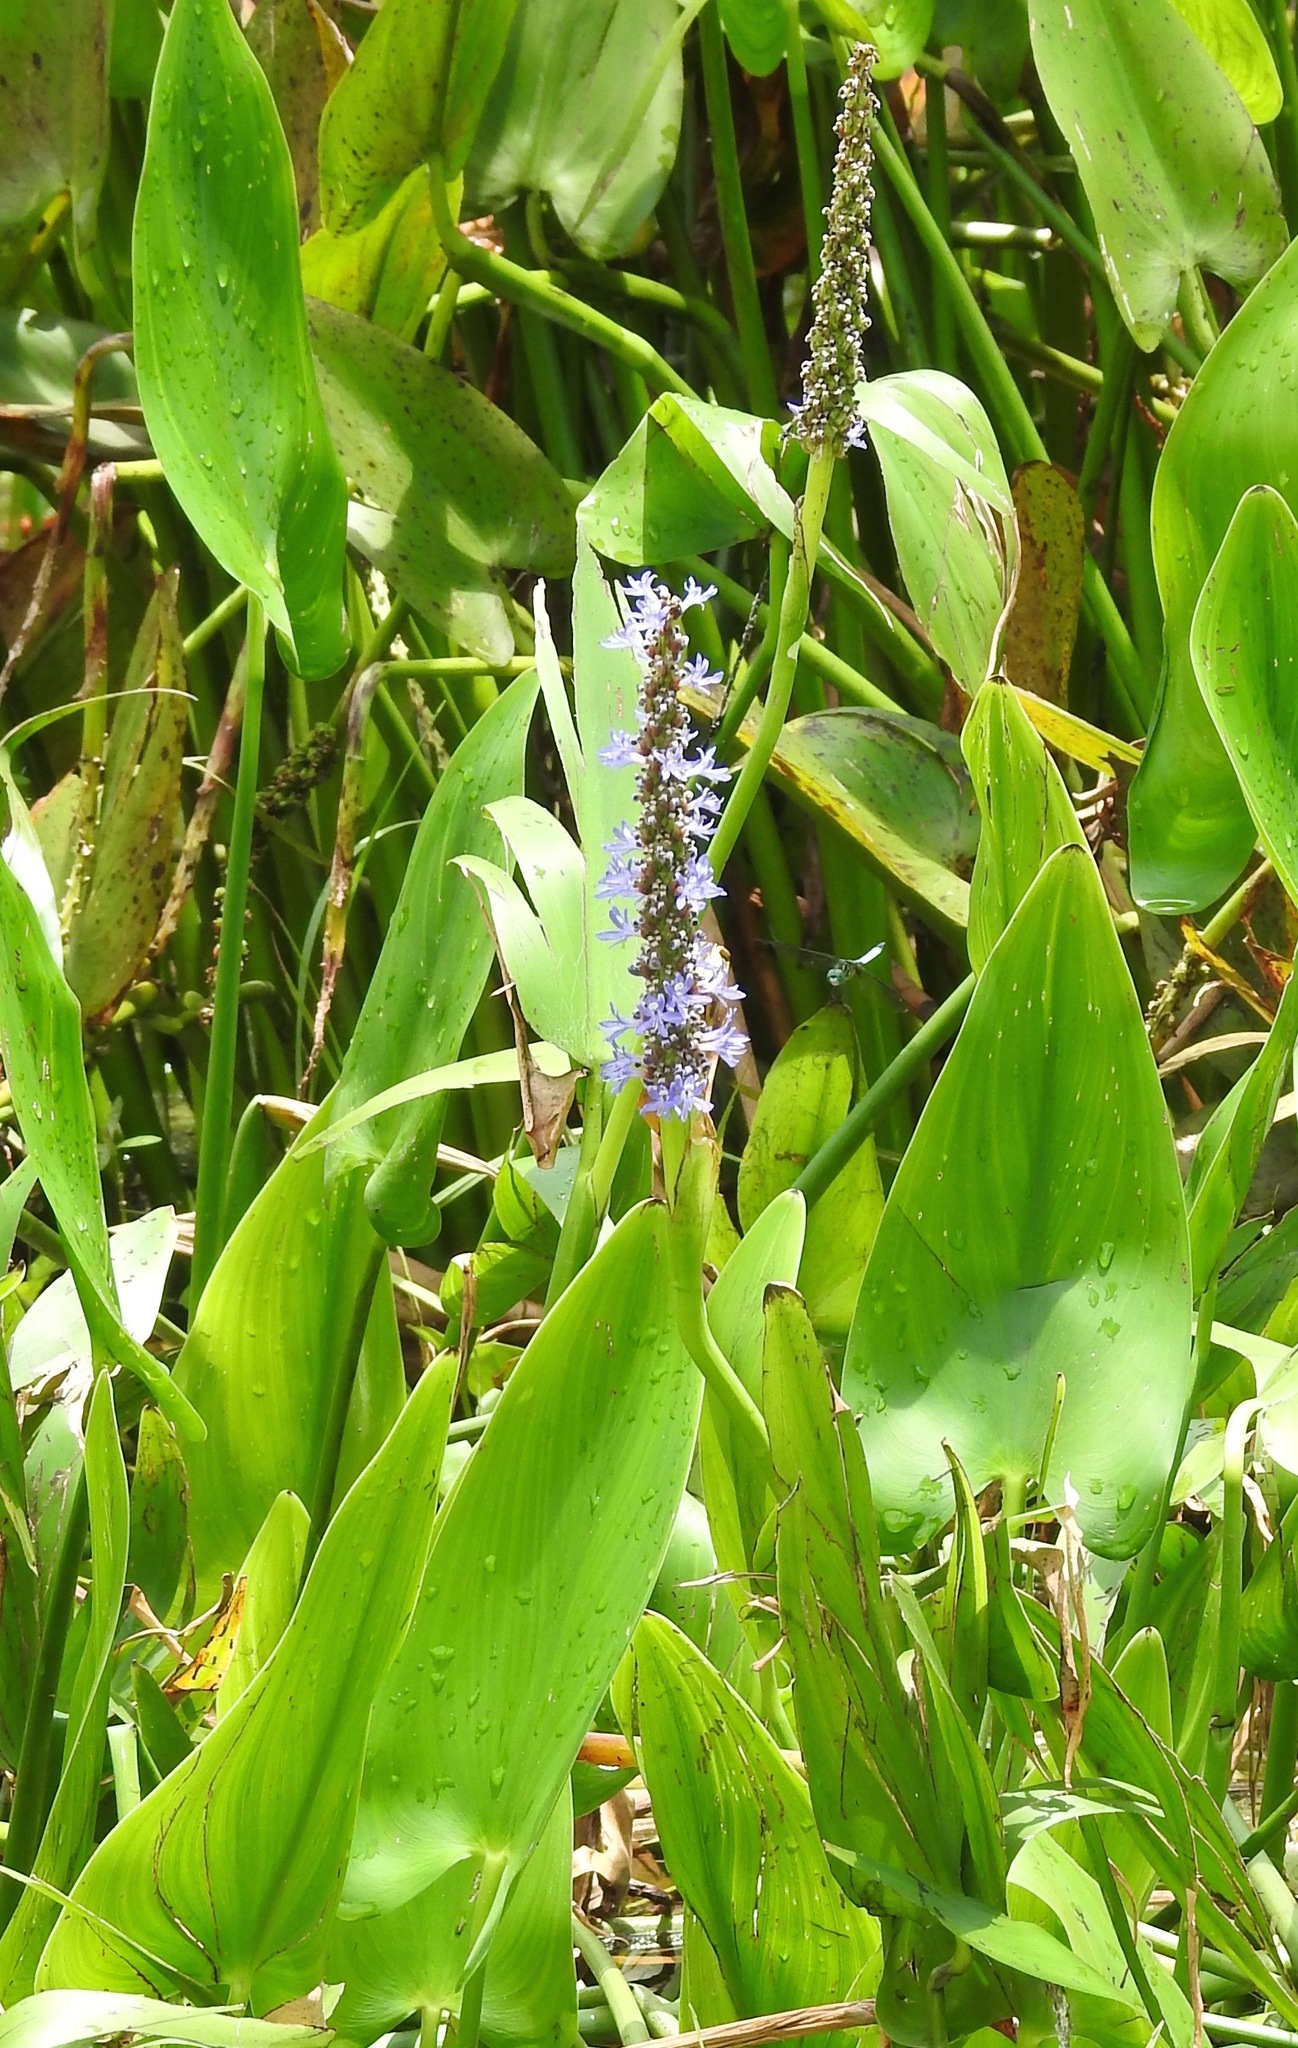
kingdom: Plantae
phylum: Tracheophyta
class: Liliopsida
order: Commelinales
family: Pontederiaceae
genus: Pontederia
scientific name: Pontederia cordata
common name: Pickerelweed
